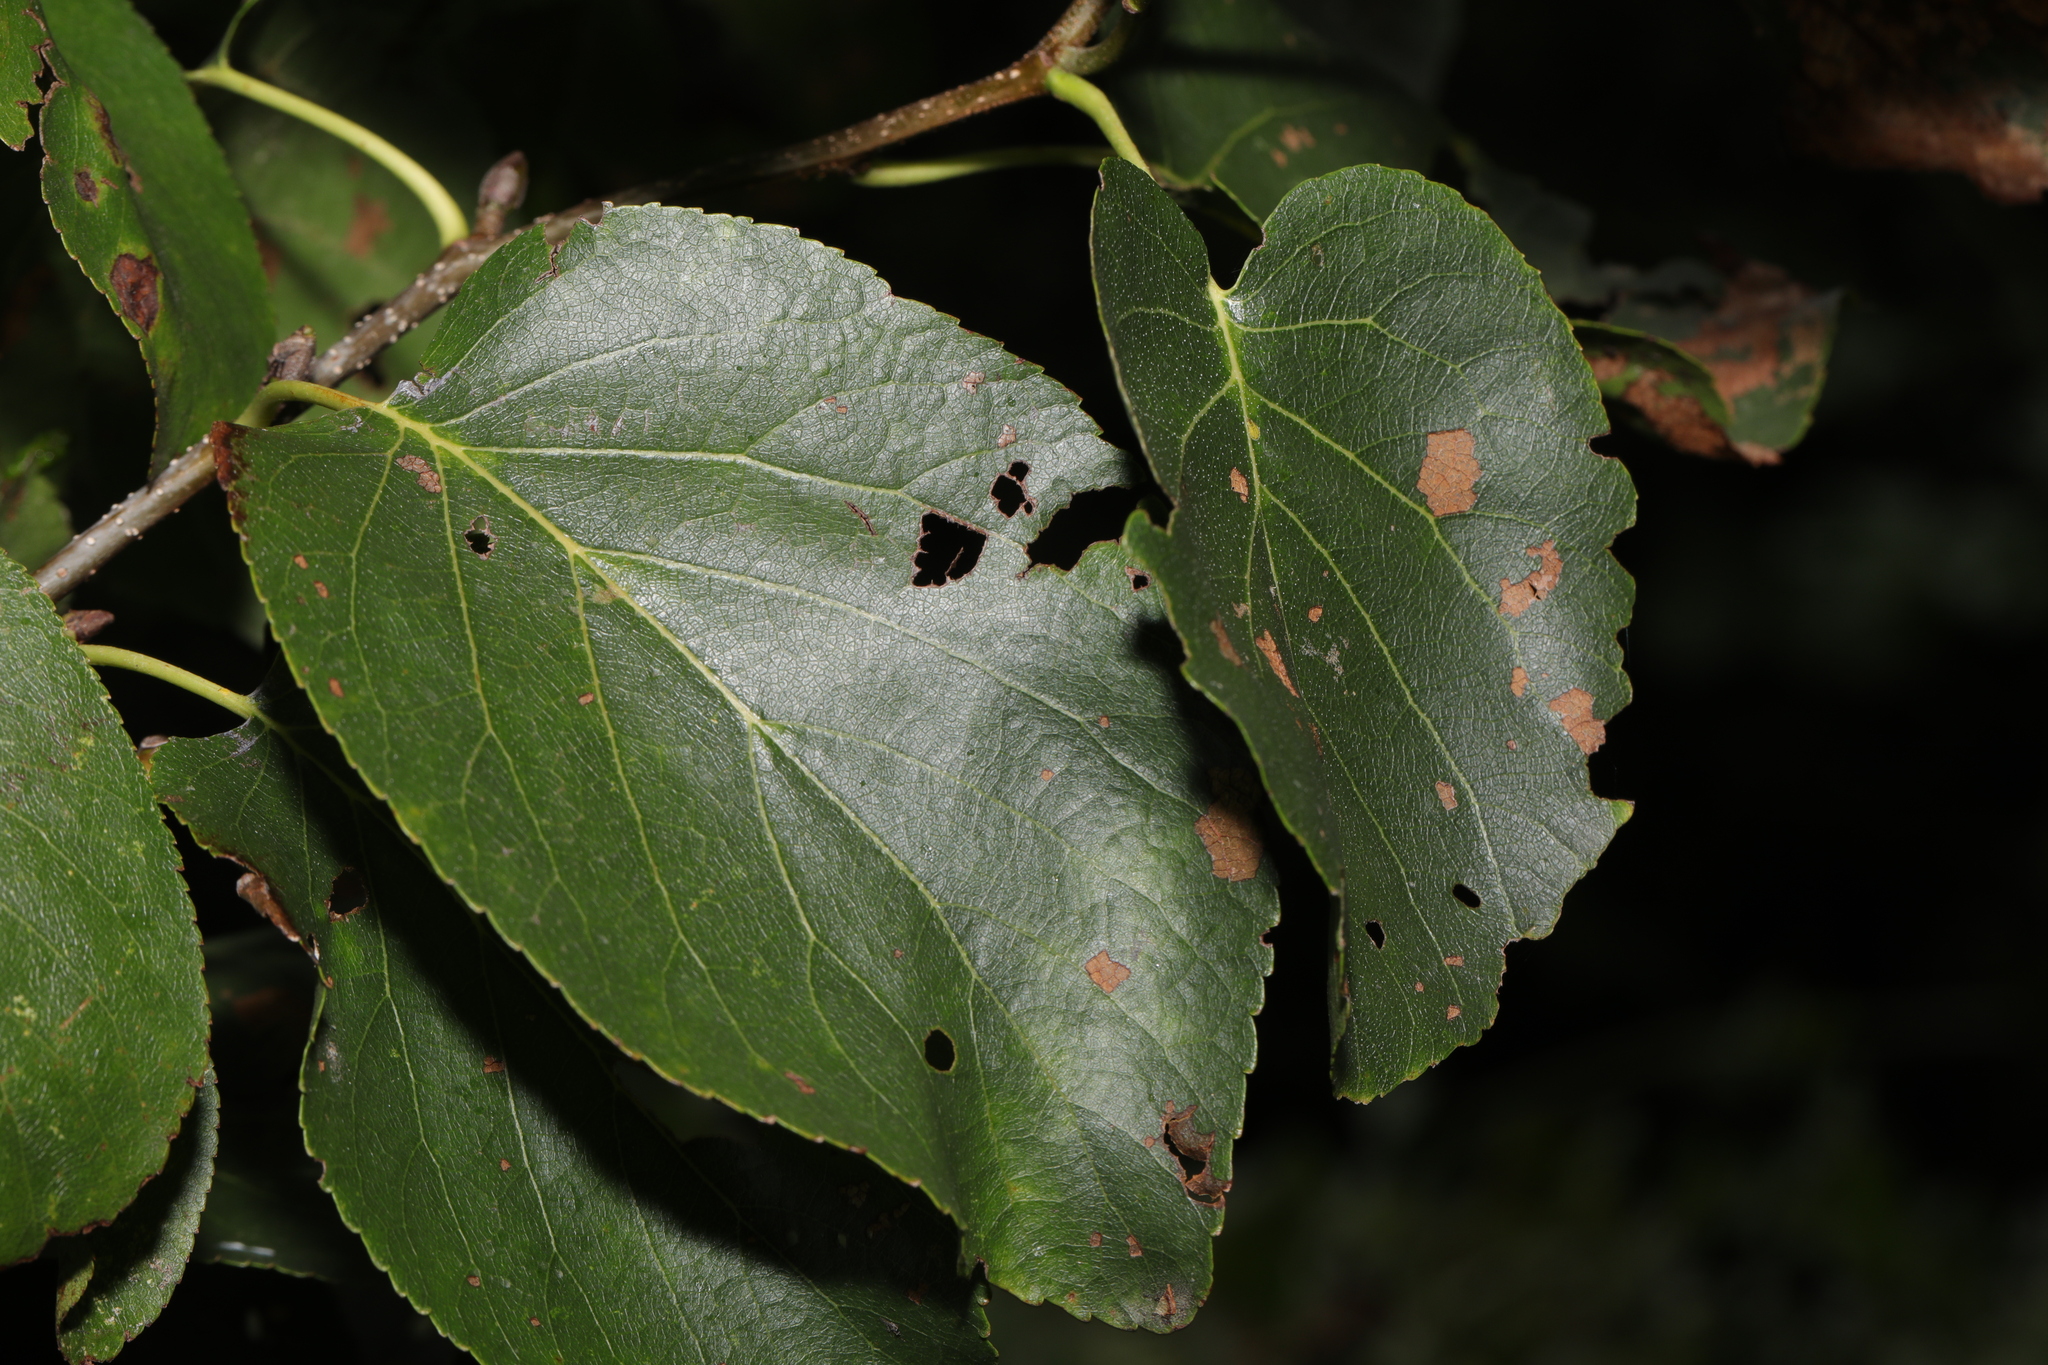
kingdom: Plantae
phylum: Tracheophyta
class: Magnoliopsida
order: Fagales
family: Betulaceae
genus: Alnus
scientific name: Alnus cordata
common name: Italian alder
